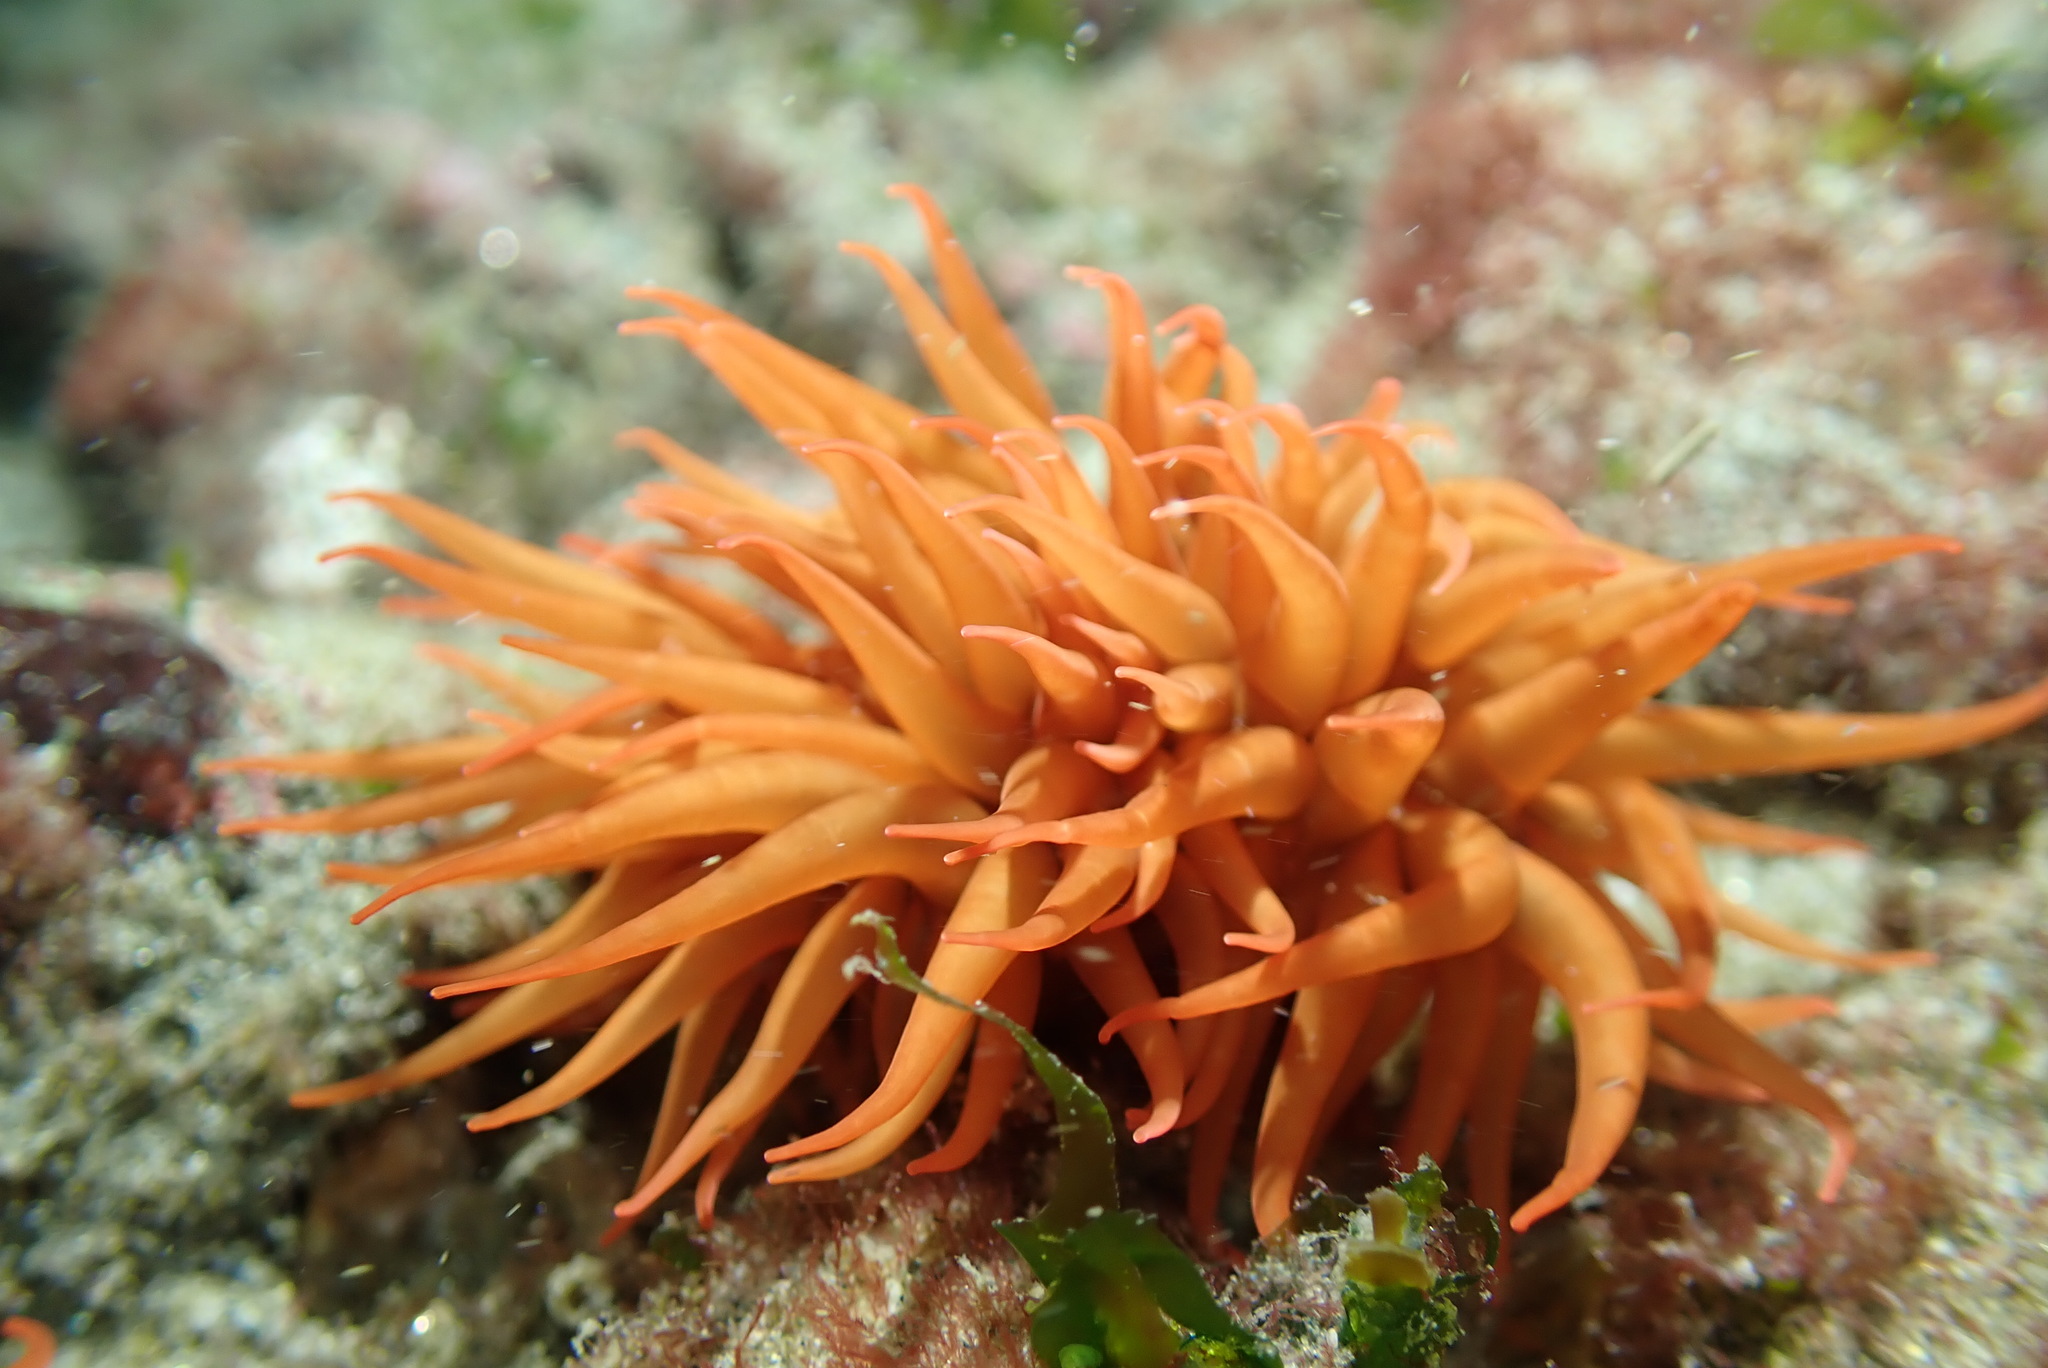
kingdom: Animalia
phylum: Cnidaria
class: Anthozoa
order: Actiniaria
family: Actiniidae
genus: Anemonia
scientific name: Anemonia alicemartinae
